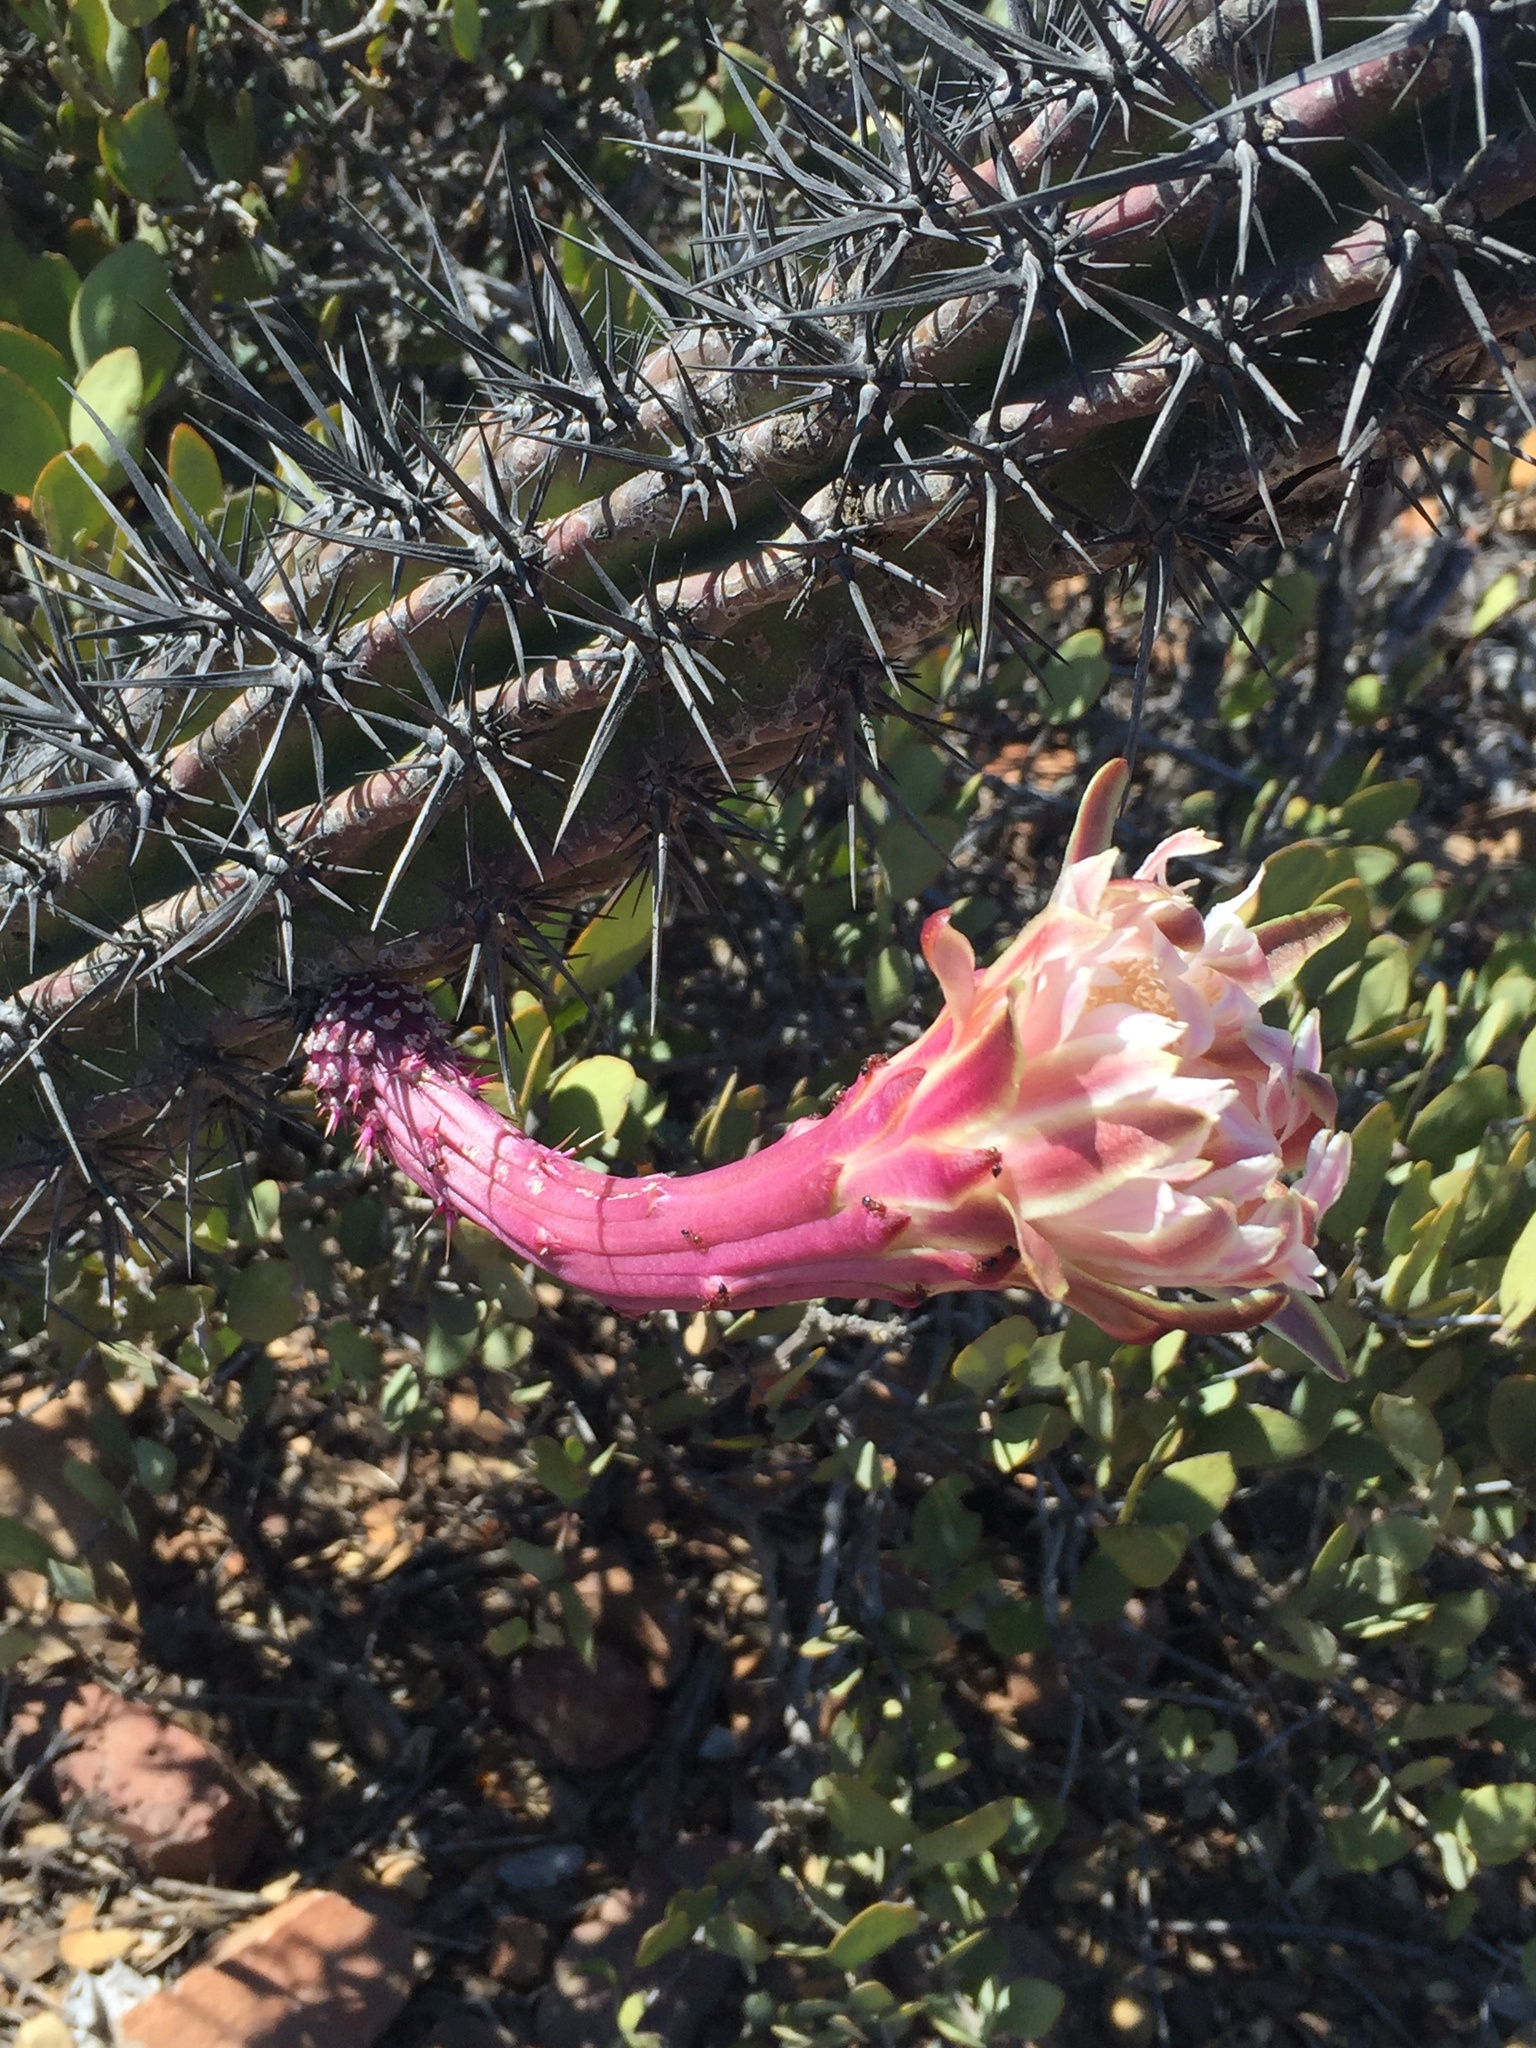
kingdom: Plantae
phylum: Tracheophyta
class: Magnoliopsida
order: Caryophyllales
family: Cactaceae
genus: Stenocereus
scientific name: Stenocereus gummosus
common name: Dagger cactus
